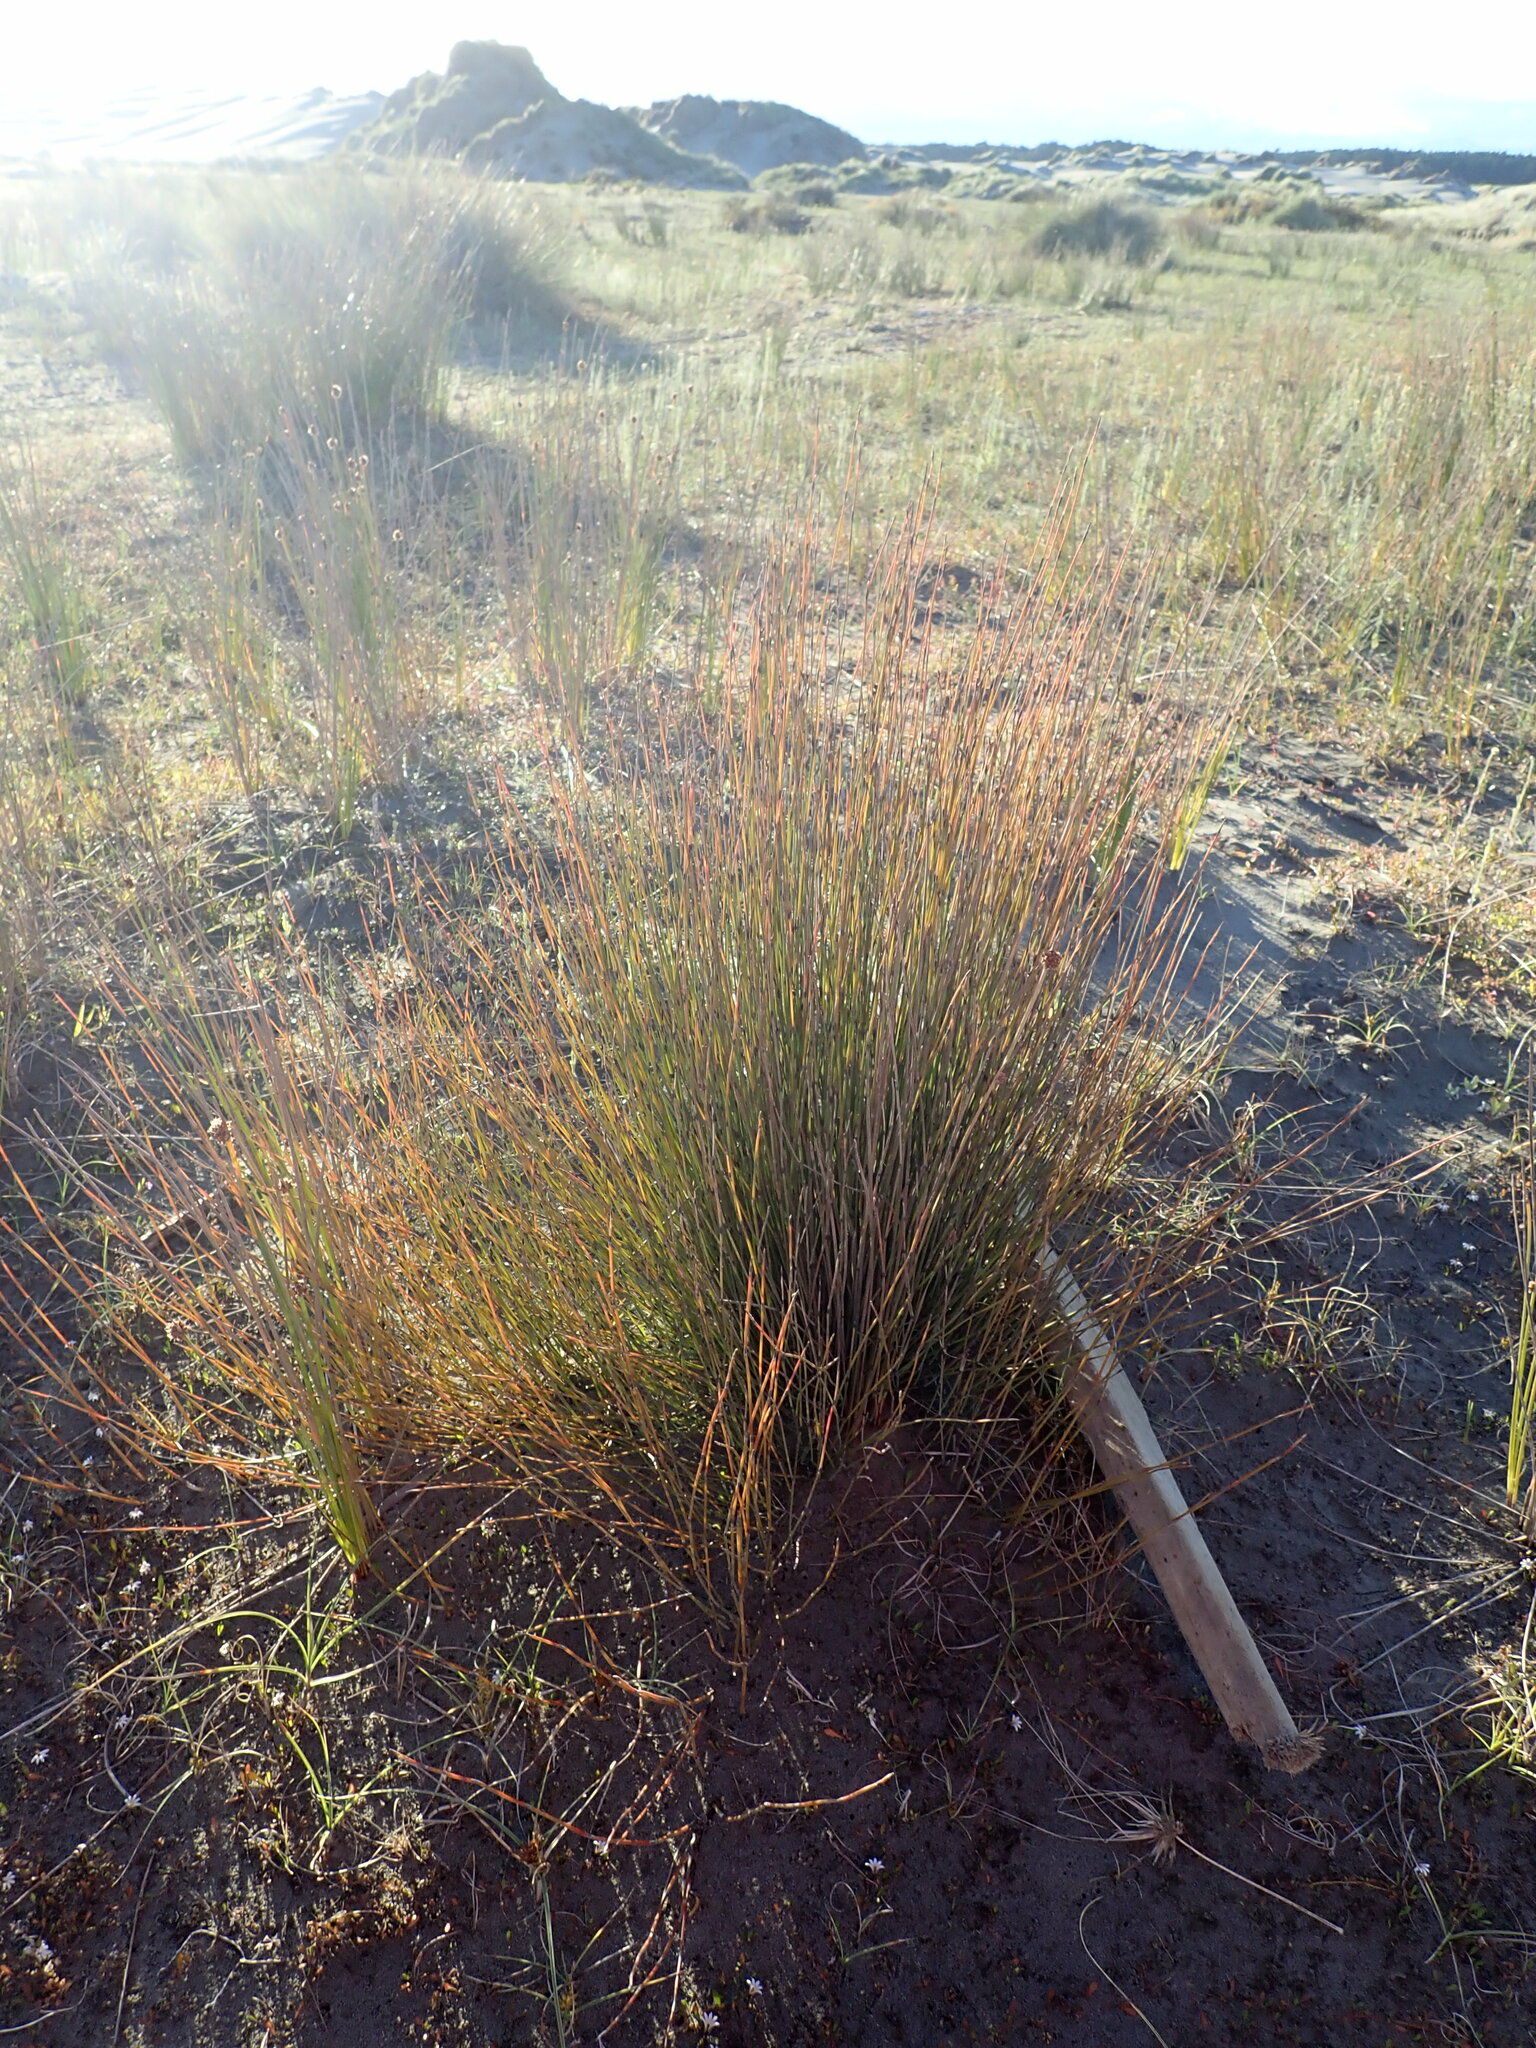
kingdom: Plantae
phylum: Tracheophyta
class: Liliopsida
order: Poales
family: Restionaceae
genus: Apodasmia
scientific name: Apodasmia similis
